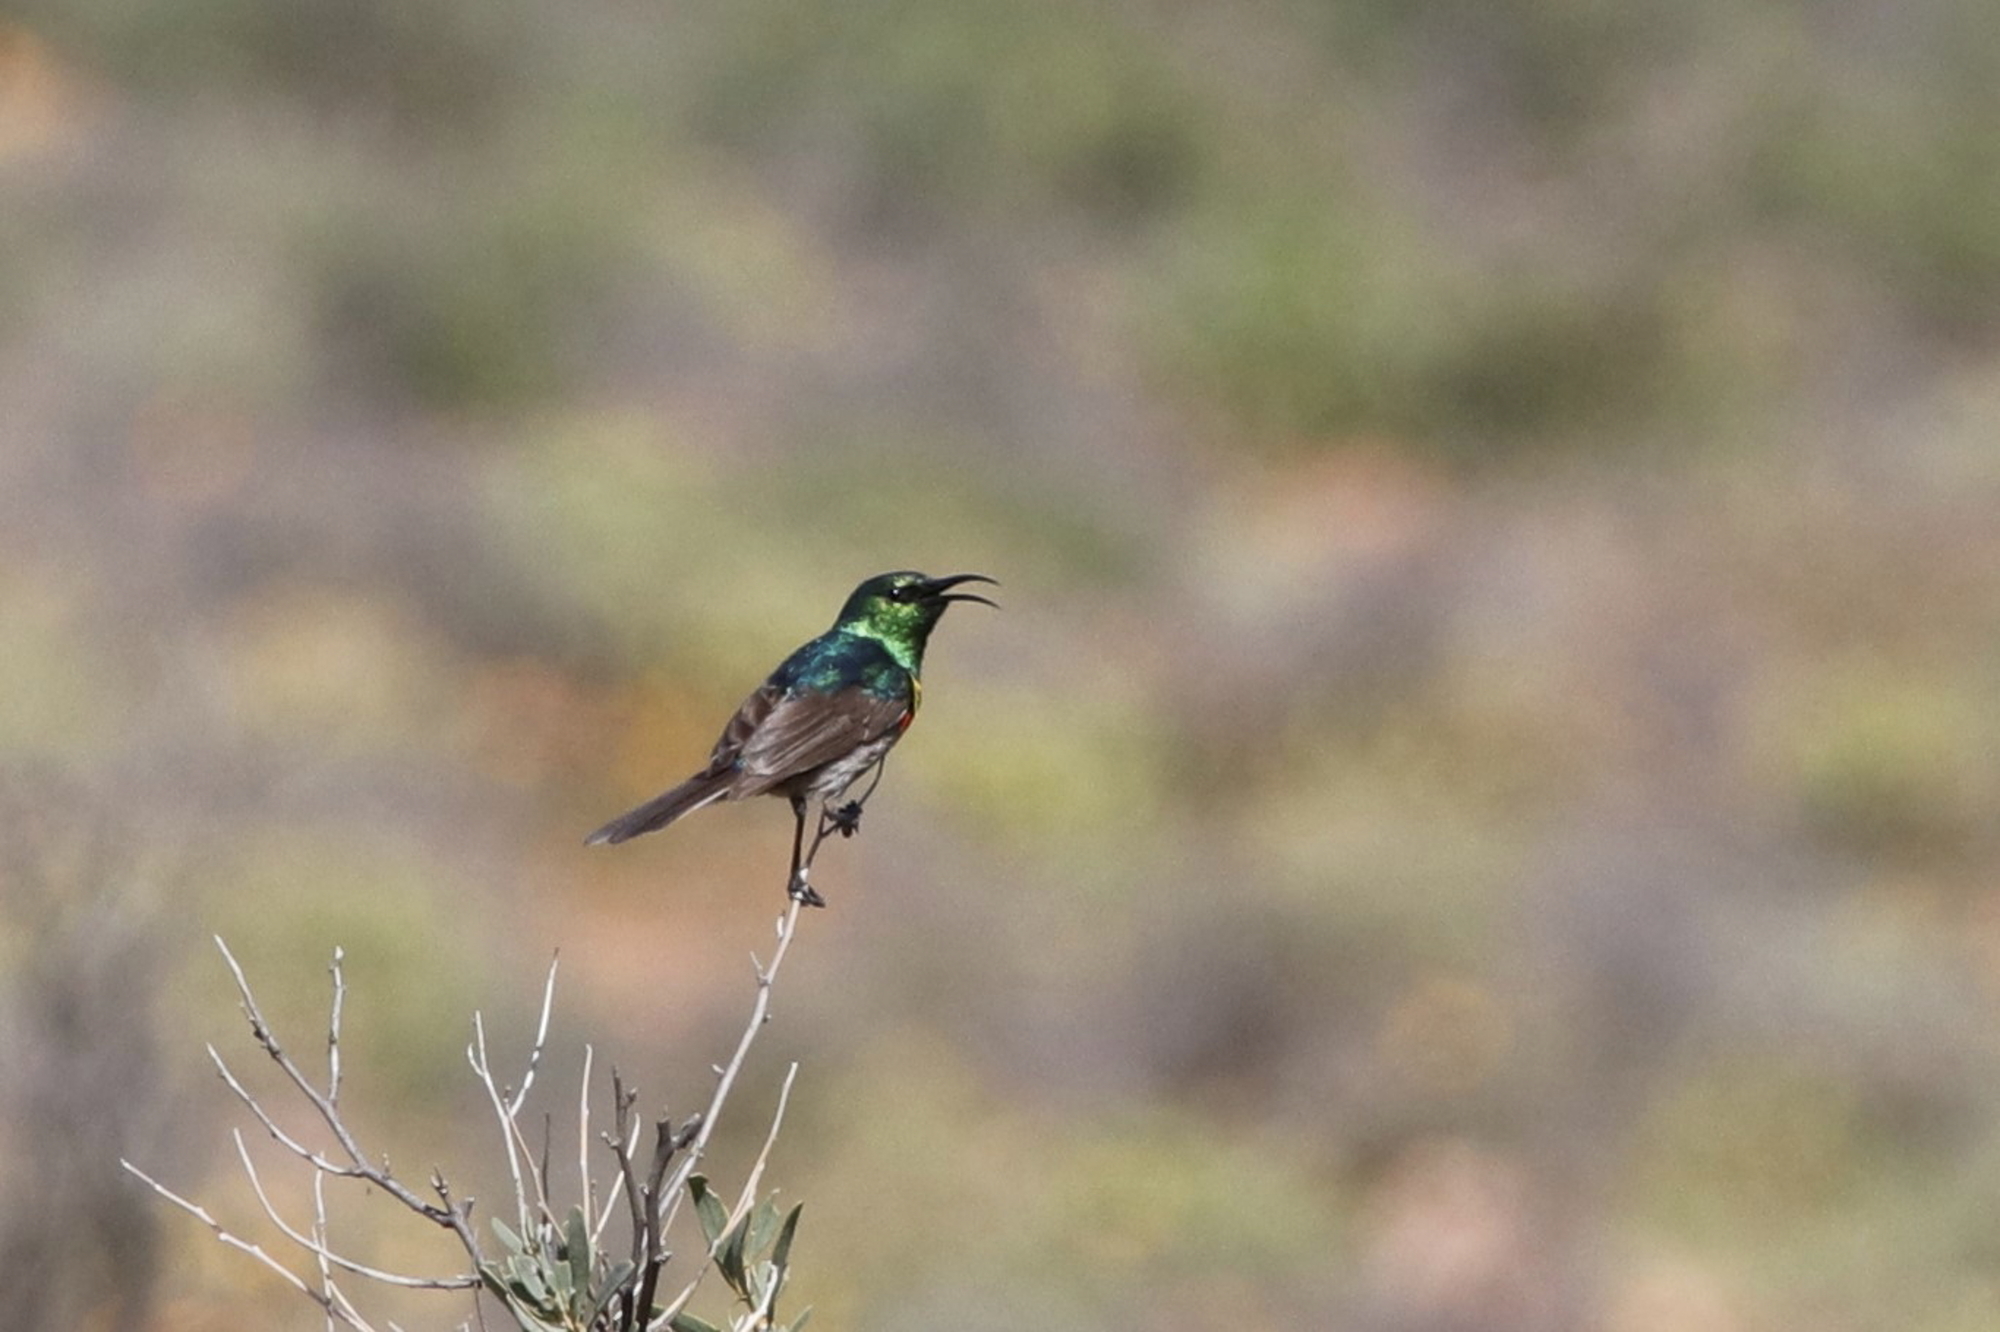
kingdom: Animalia
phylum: Chordata
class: Aves
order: Passeriformes
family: Nectariniidae
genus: Cinnyris
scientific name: Cinnyris chalybeus
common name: Southern double-collared sunbird
